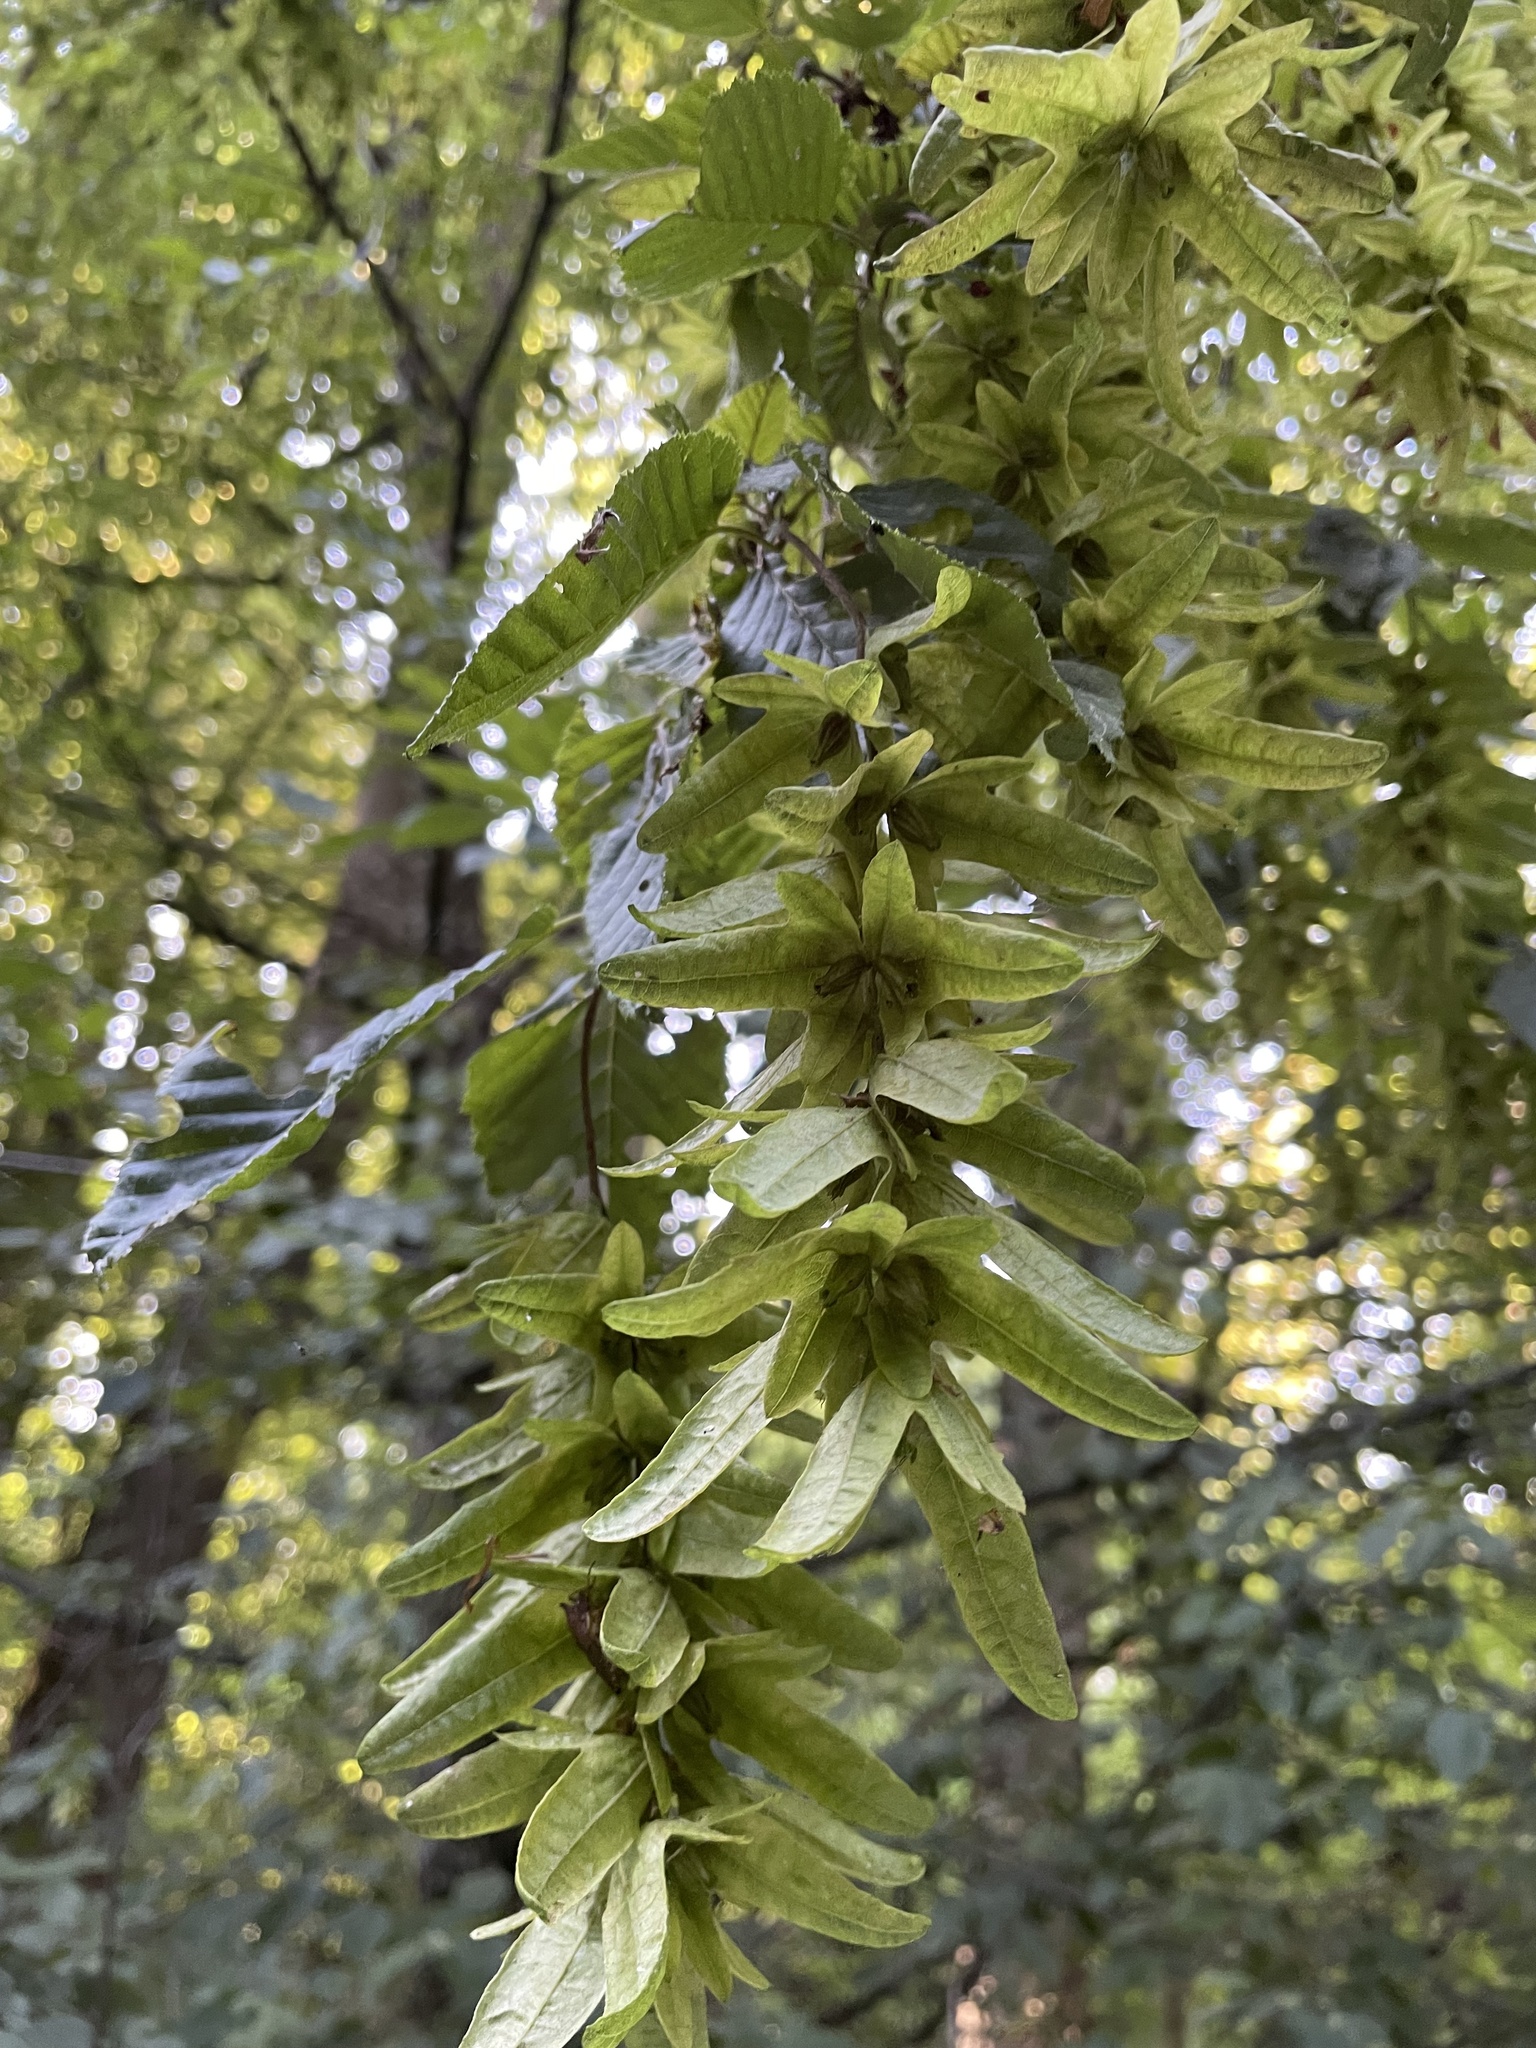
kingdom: Plantae
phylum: Tracheophyta
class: Magnoliopsida
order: Fagales
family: Betulaceae
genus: Carpinus
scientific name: Carpinus betulus
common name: Hornbeam
